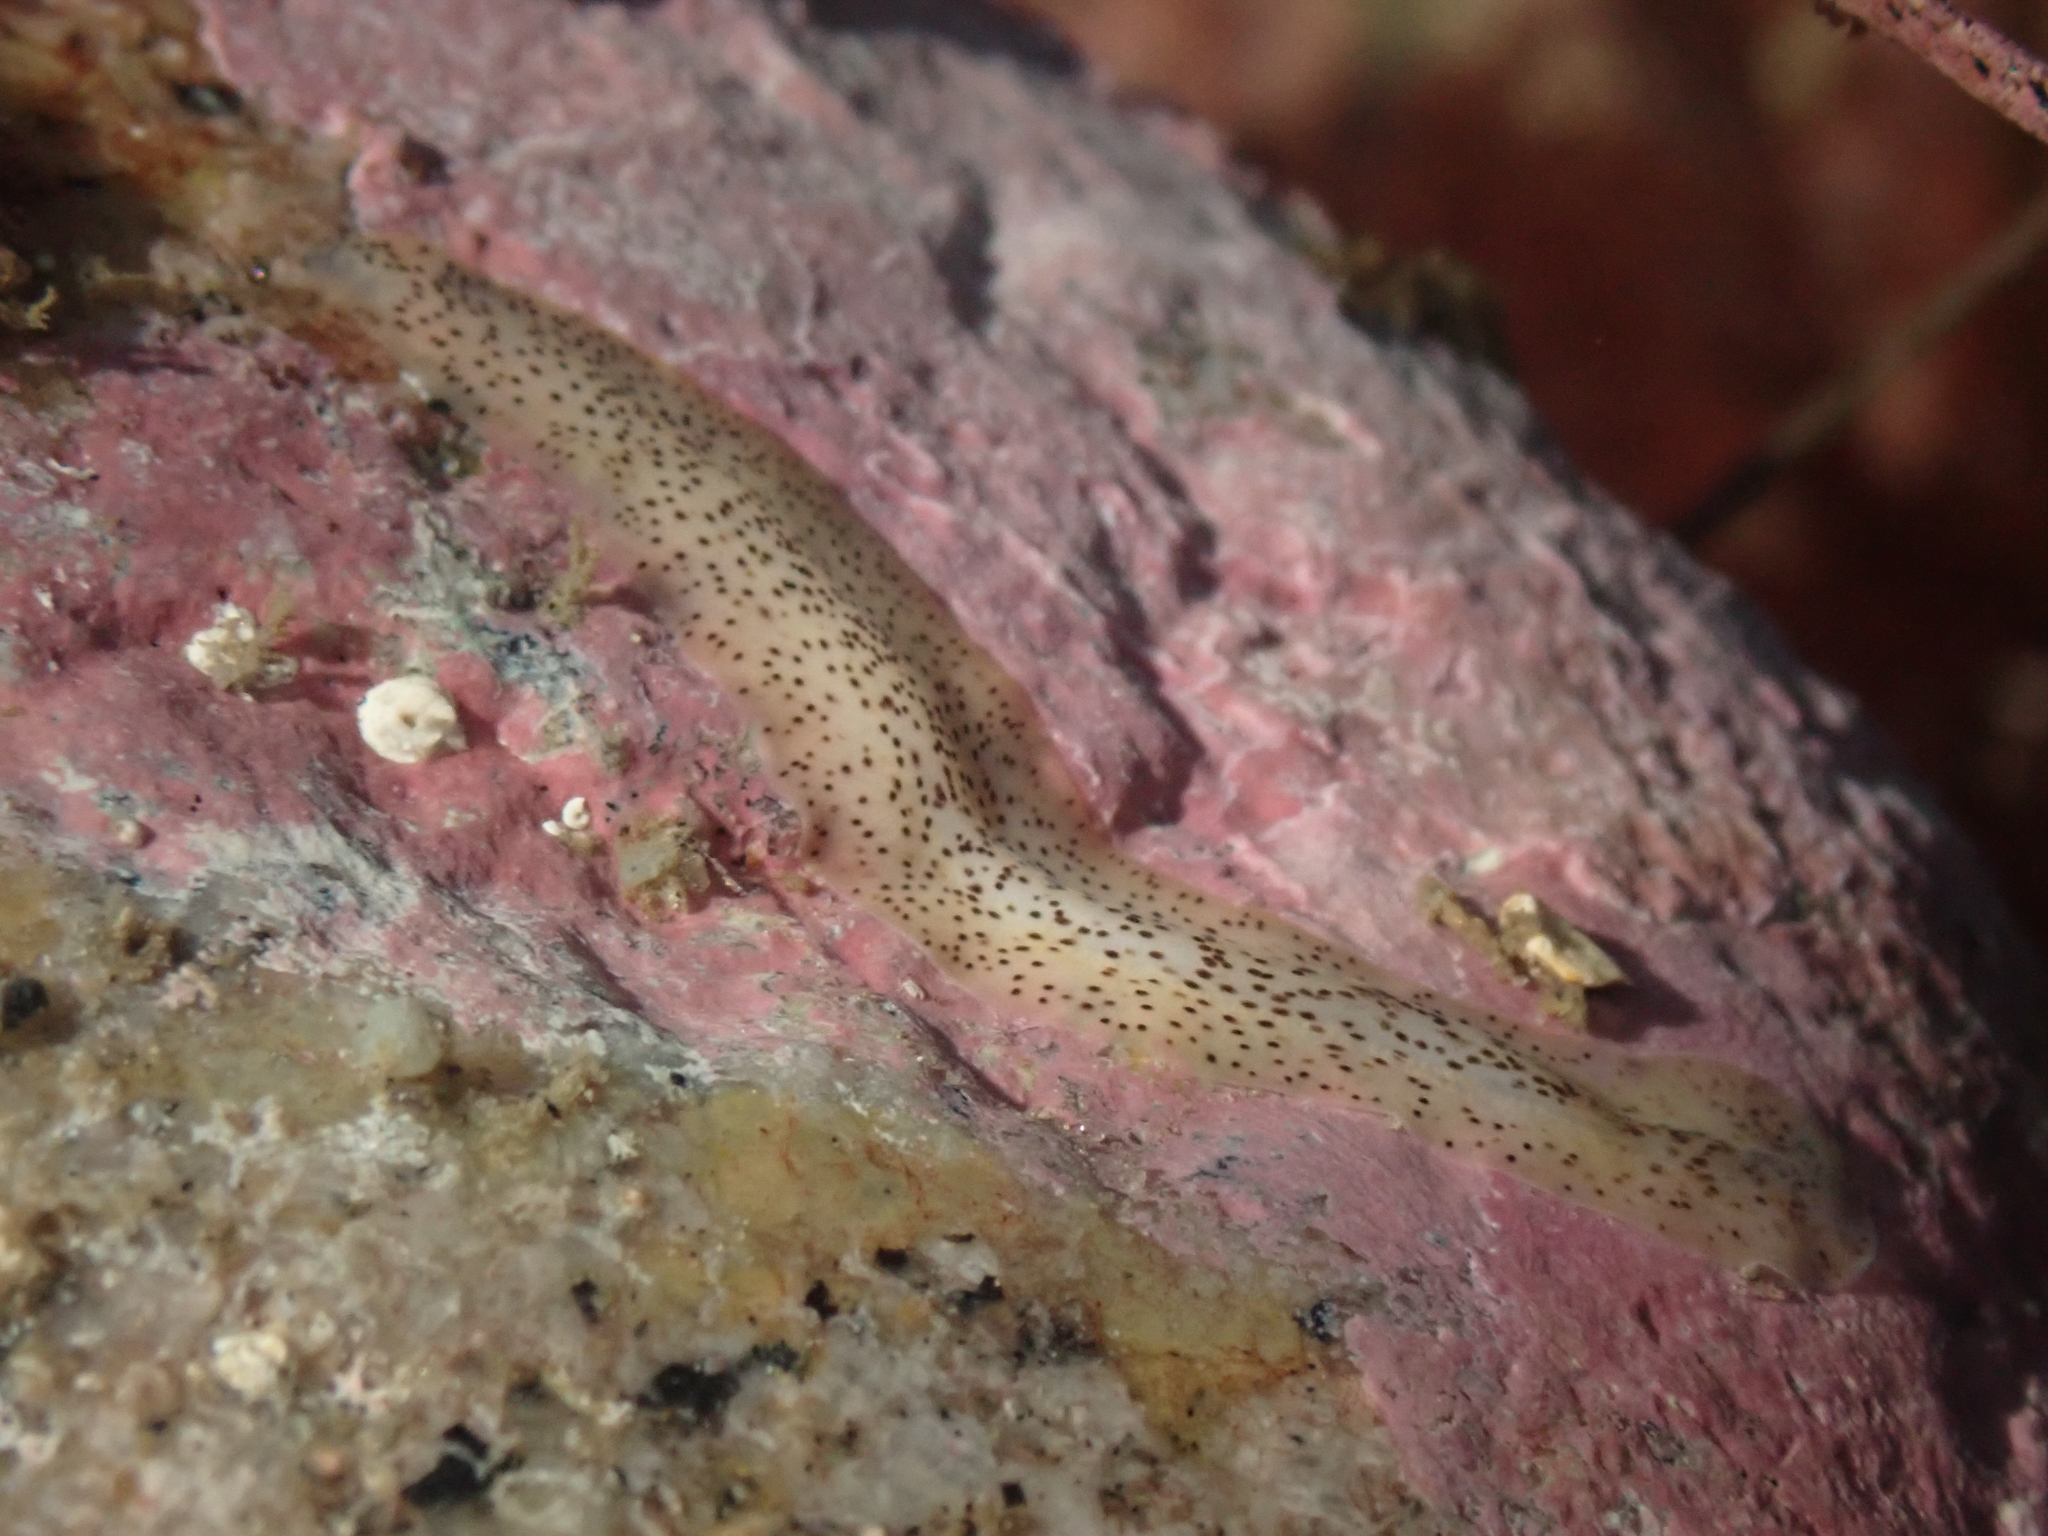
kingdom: Animalia
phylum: Platyhelminthes
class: Turbellaria
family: Prosthiostomidae
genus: Enchiridium
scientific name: Enchiridium punctatum
